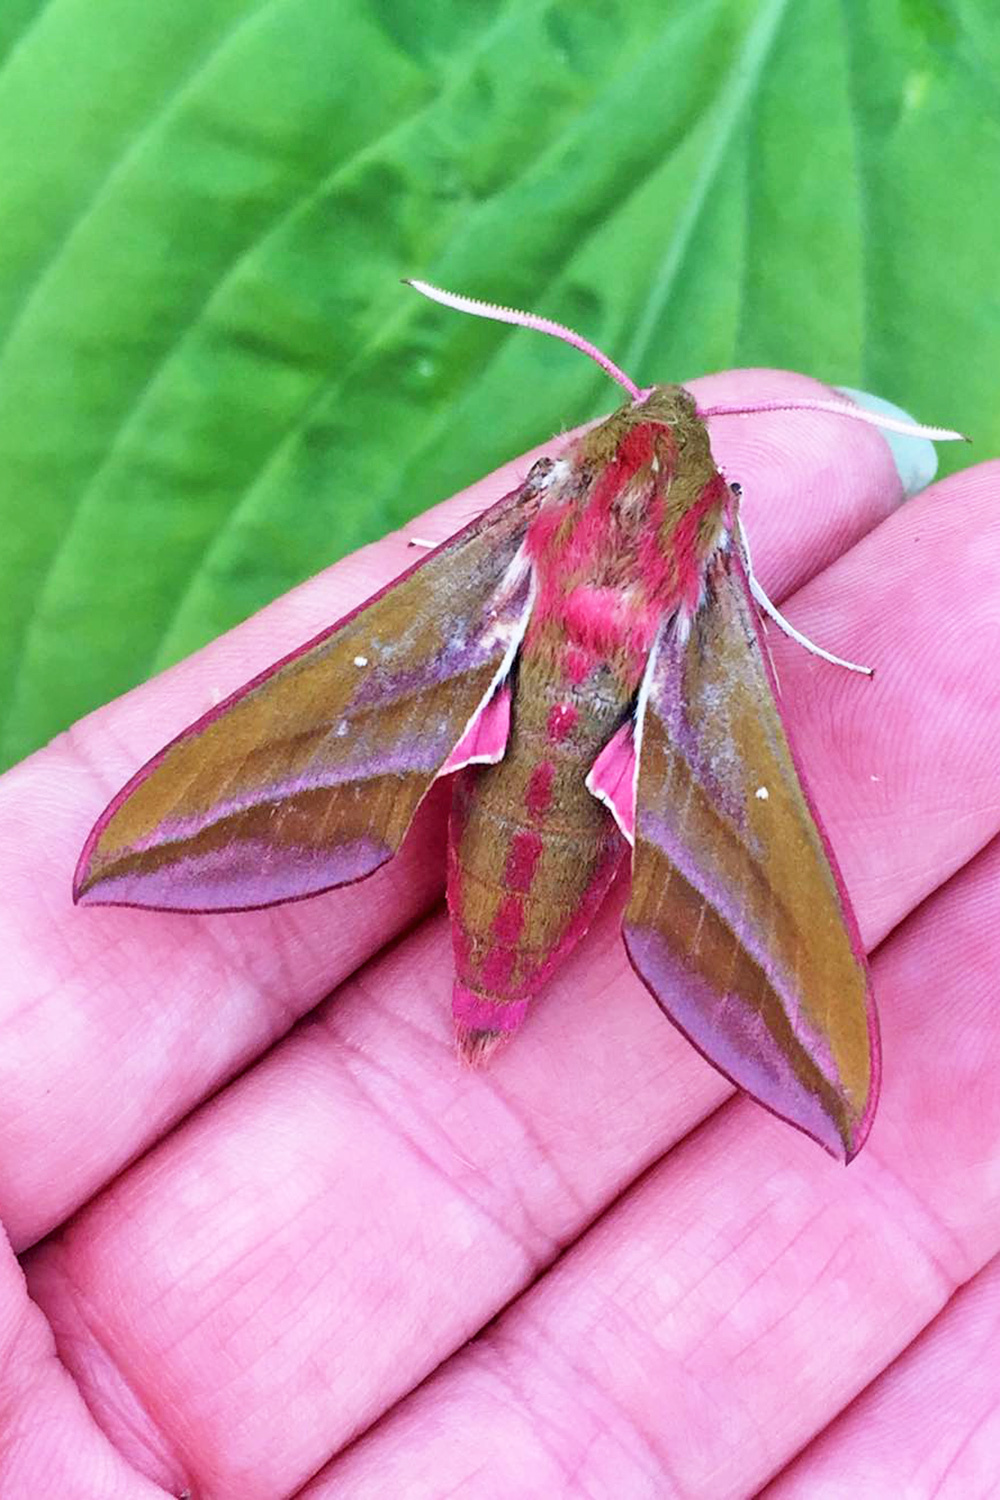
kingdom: Animalia
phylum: Arthropoda
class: Insecta
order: Lepidoptera
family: Sphingidae
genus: Deilephila
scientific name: Deilephila elpenor
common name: Elephant hawk-moth
